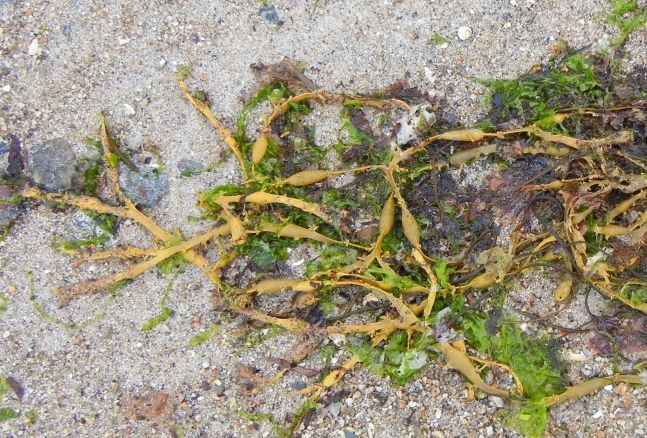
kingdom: Chromista
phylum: Ochrophyta
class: Phaeophyceae
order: Fucales
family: Fucaceae
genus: Ascophyllum
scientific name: Ascophyllum nodosum
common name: Knotted wrack
